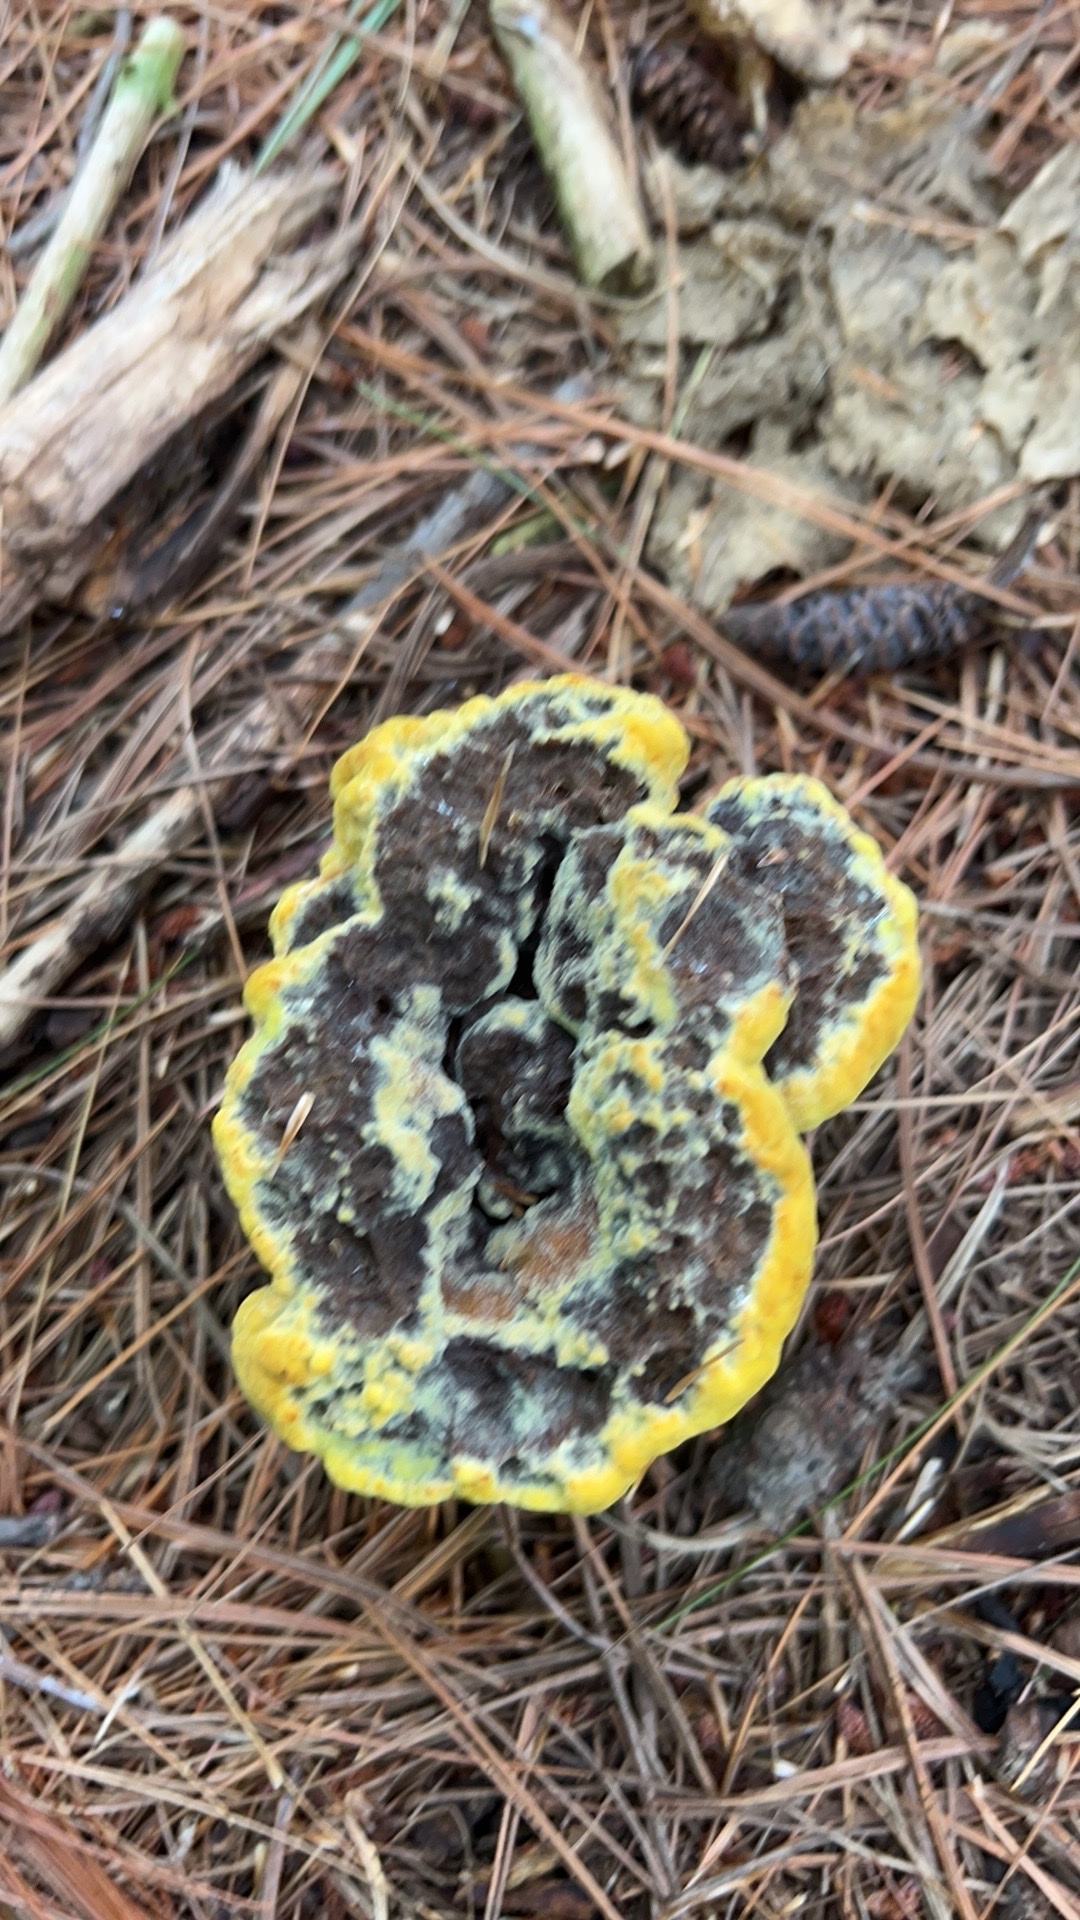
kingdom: Fungi
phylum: Basidiomycota
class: Agaricomycetes
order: Polyporales
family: Laetiporaceae
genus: Phaeolus
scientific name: Phaeolus schweinitzii
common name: Dyer's mazegill
